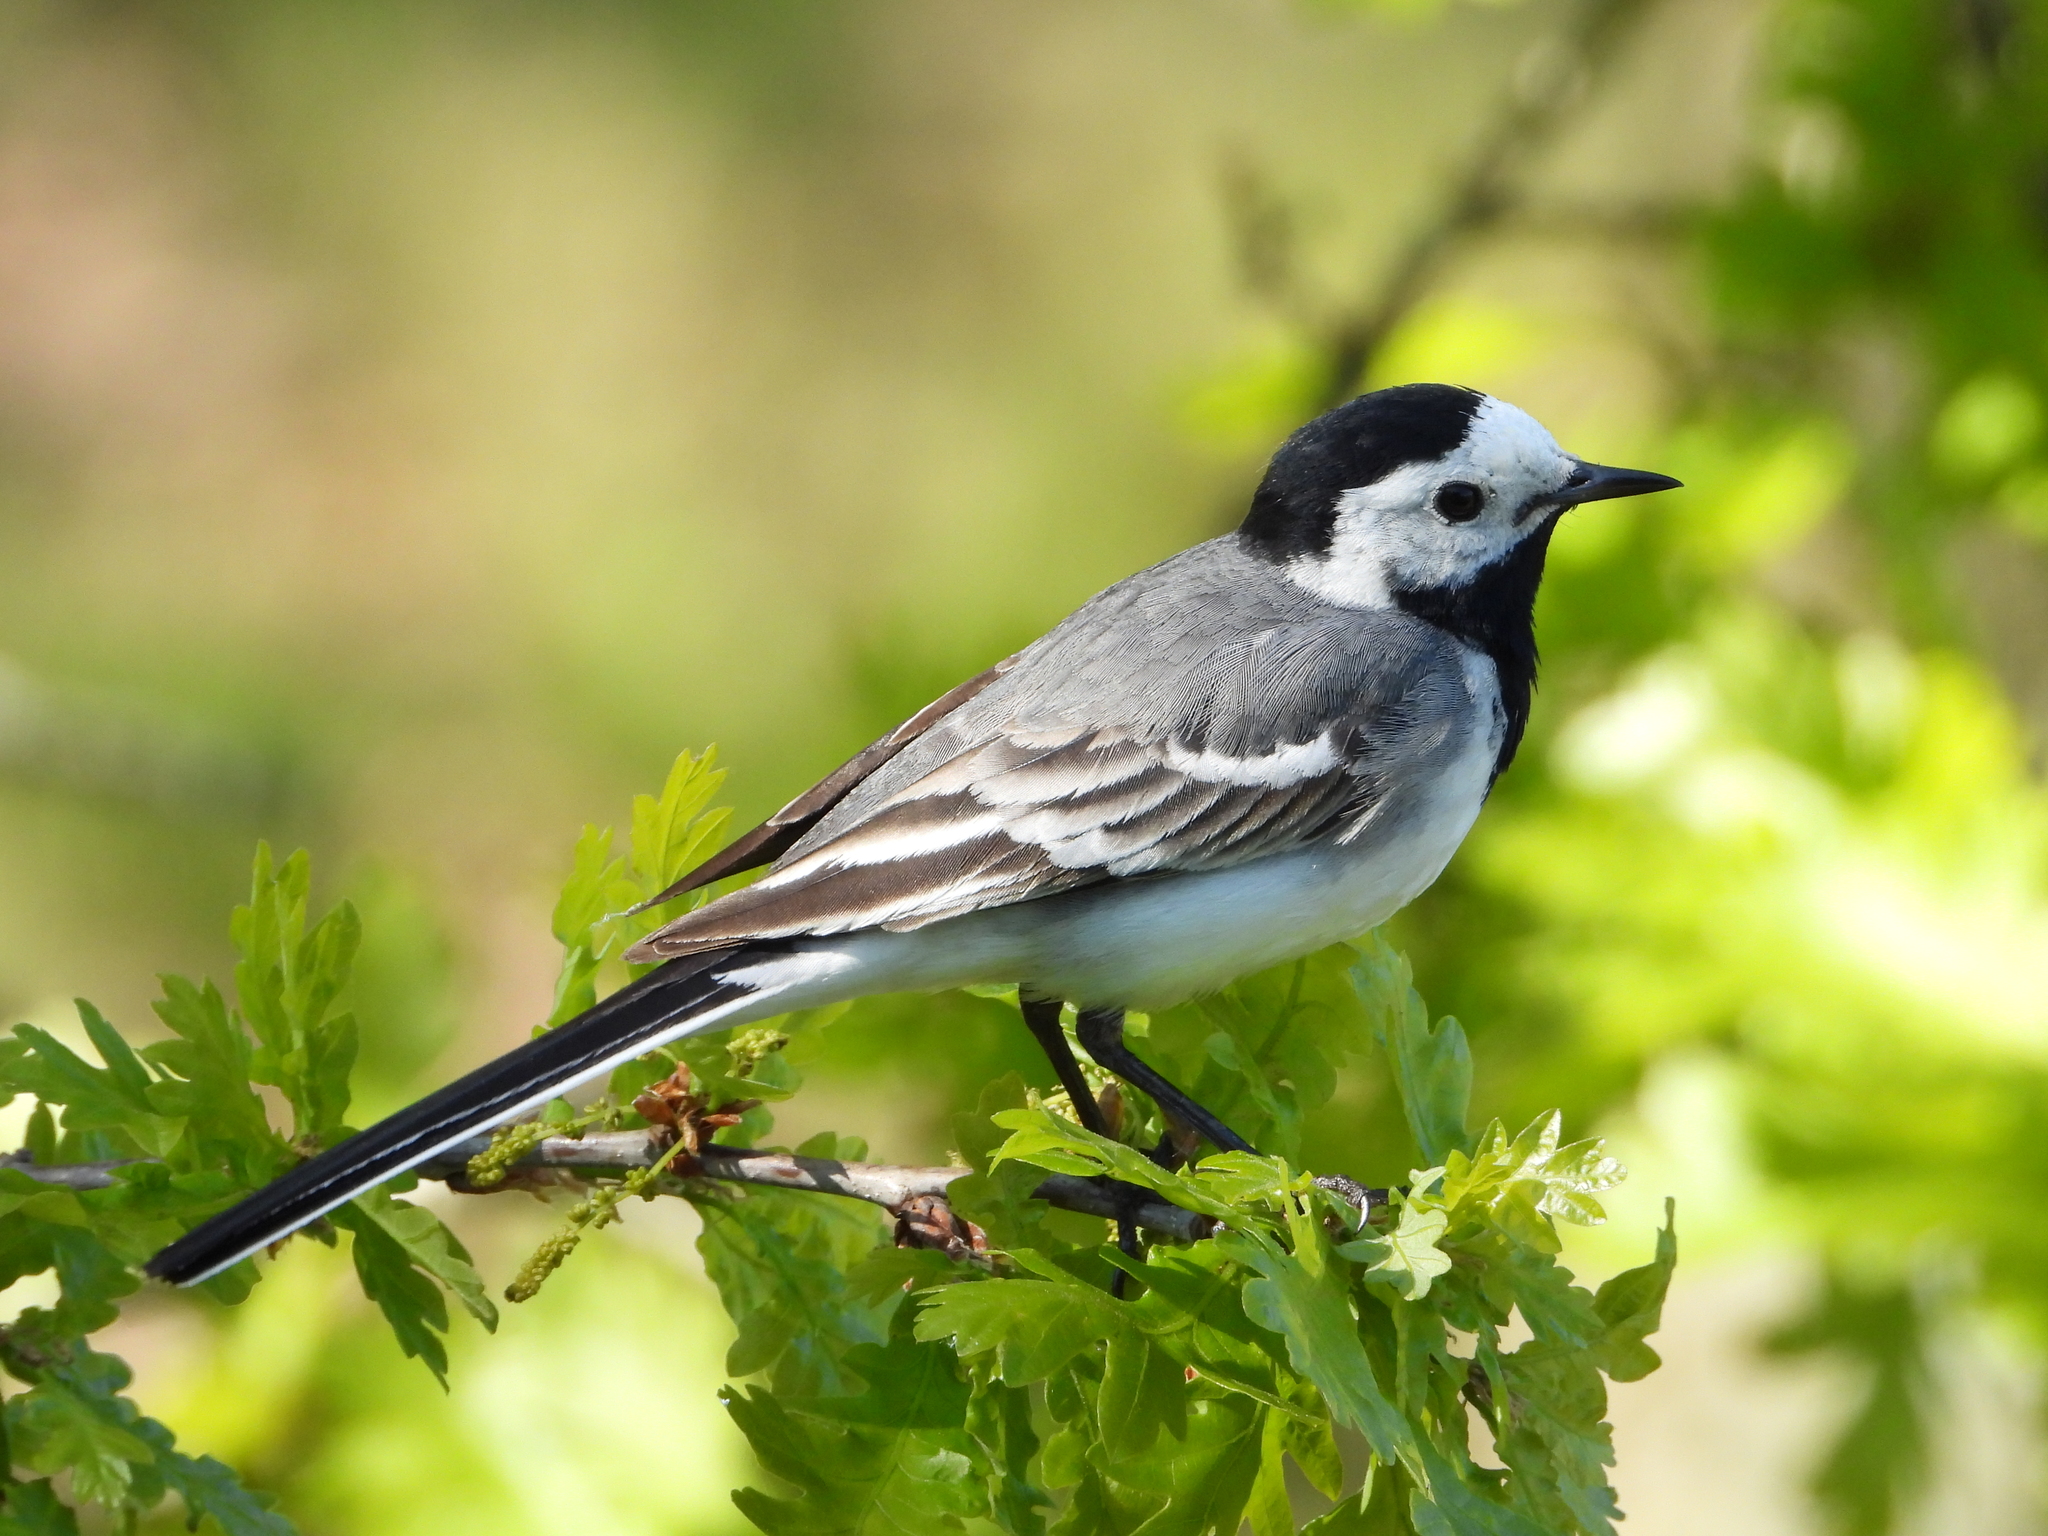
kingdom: Animalia
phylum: Chordata
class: Aves
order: Passeriformes
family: Motacillidae
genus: Motacilla
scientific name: Motacilla alba
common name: White wagtail
